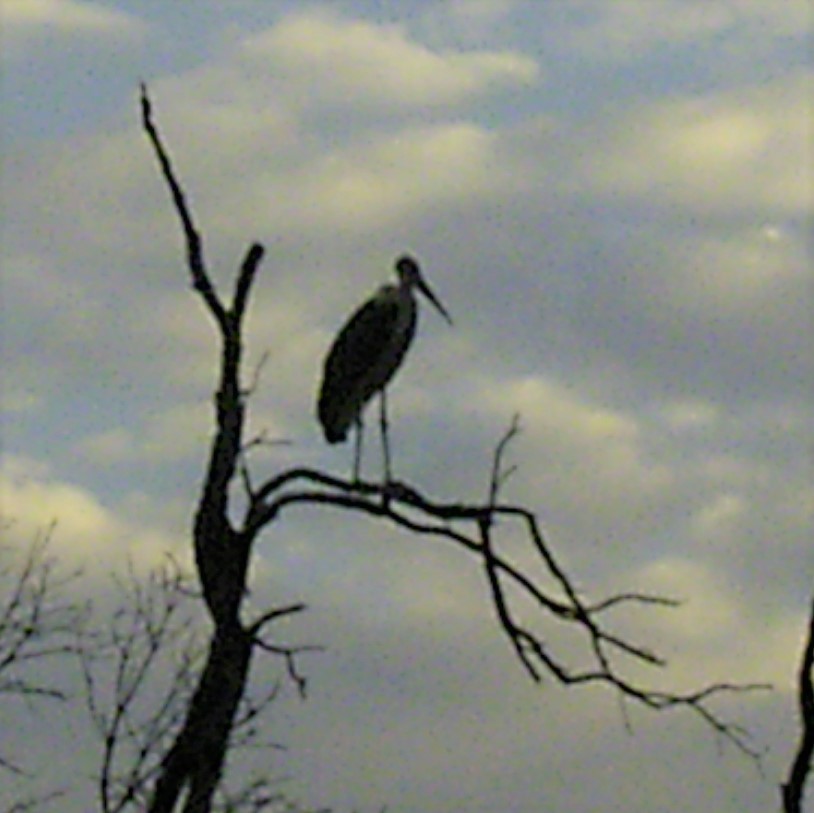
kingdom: Animalia
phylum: Chordata
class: Aves
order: Ciconiiformes
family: Ciconiidae
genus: Leptoptilos
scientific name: Leptoptilos crumenifer
